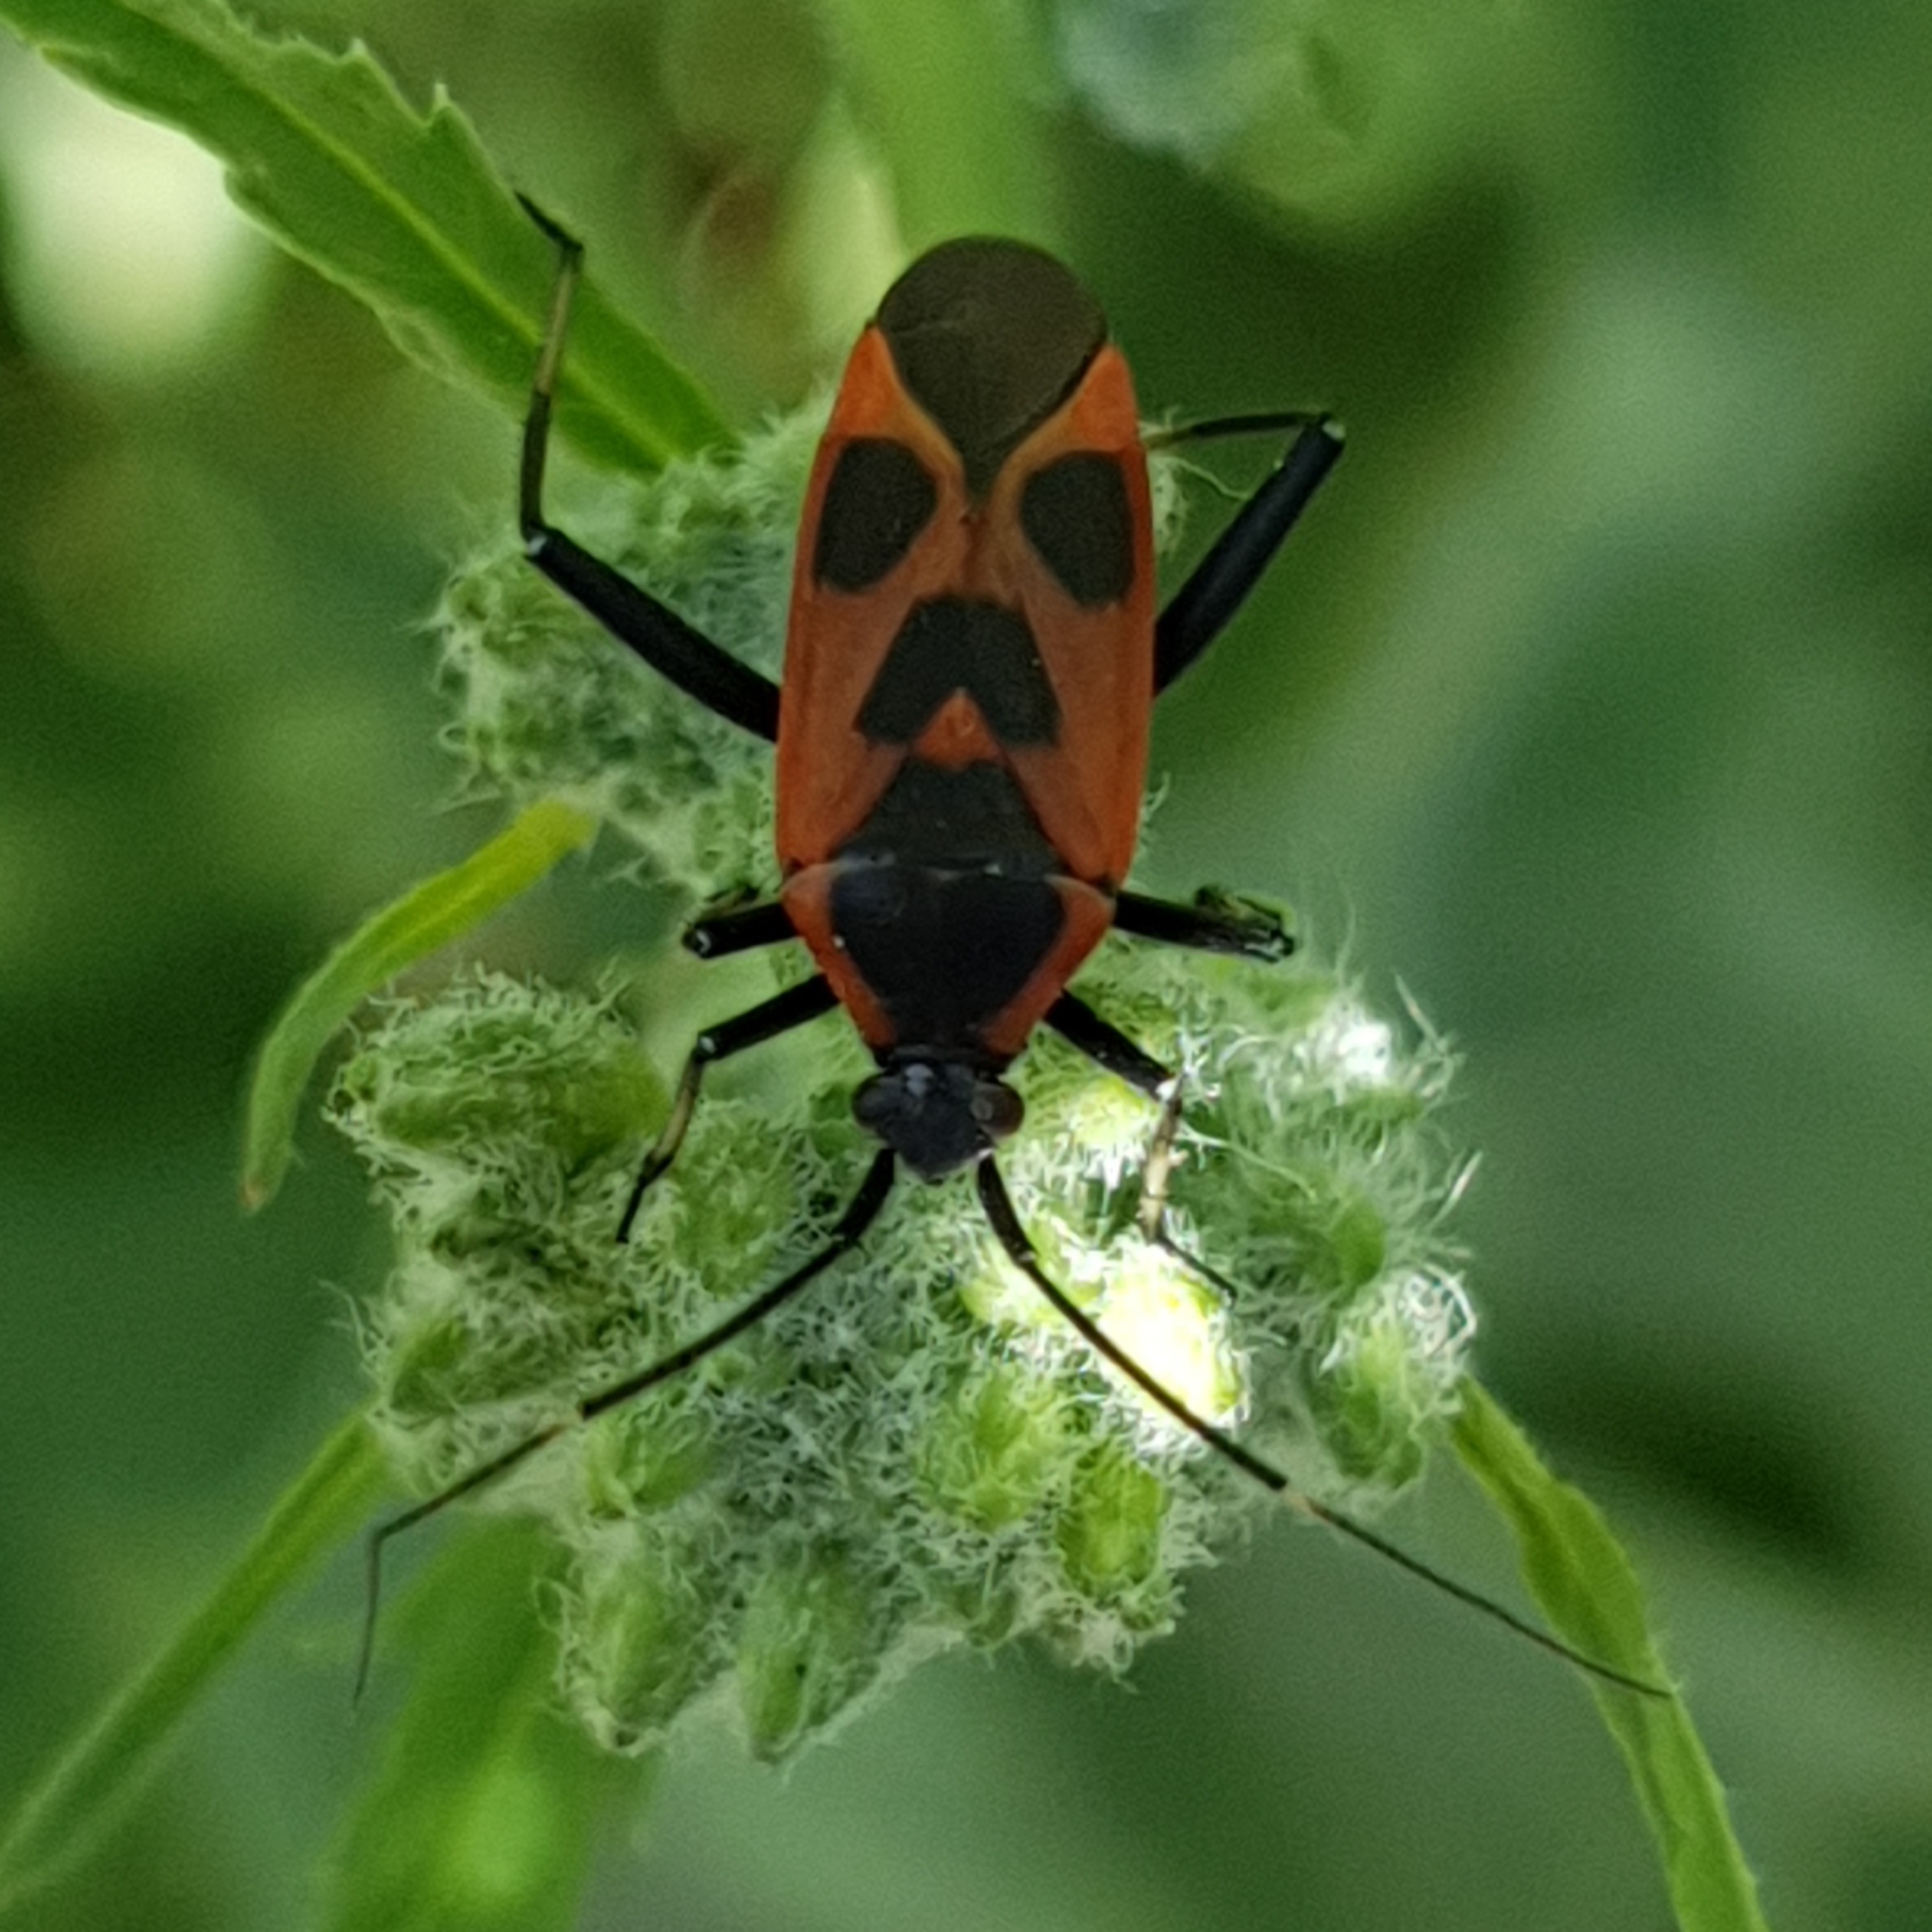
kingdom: Animalia
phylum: Arthropoda
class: Insecta
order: Hemiptera
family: Miridae
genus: Calocoris
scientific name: Calocoris nemoralis
